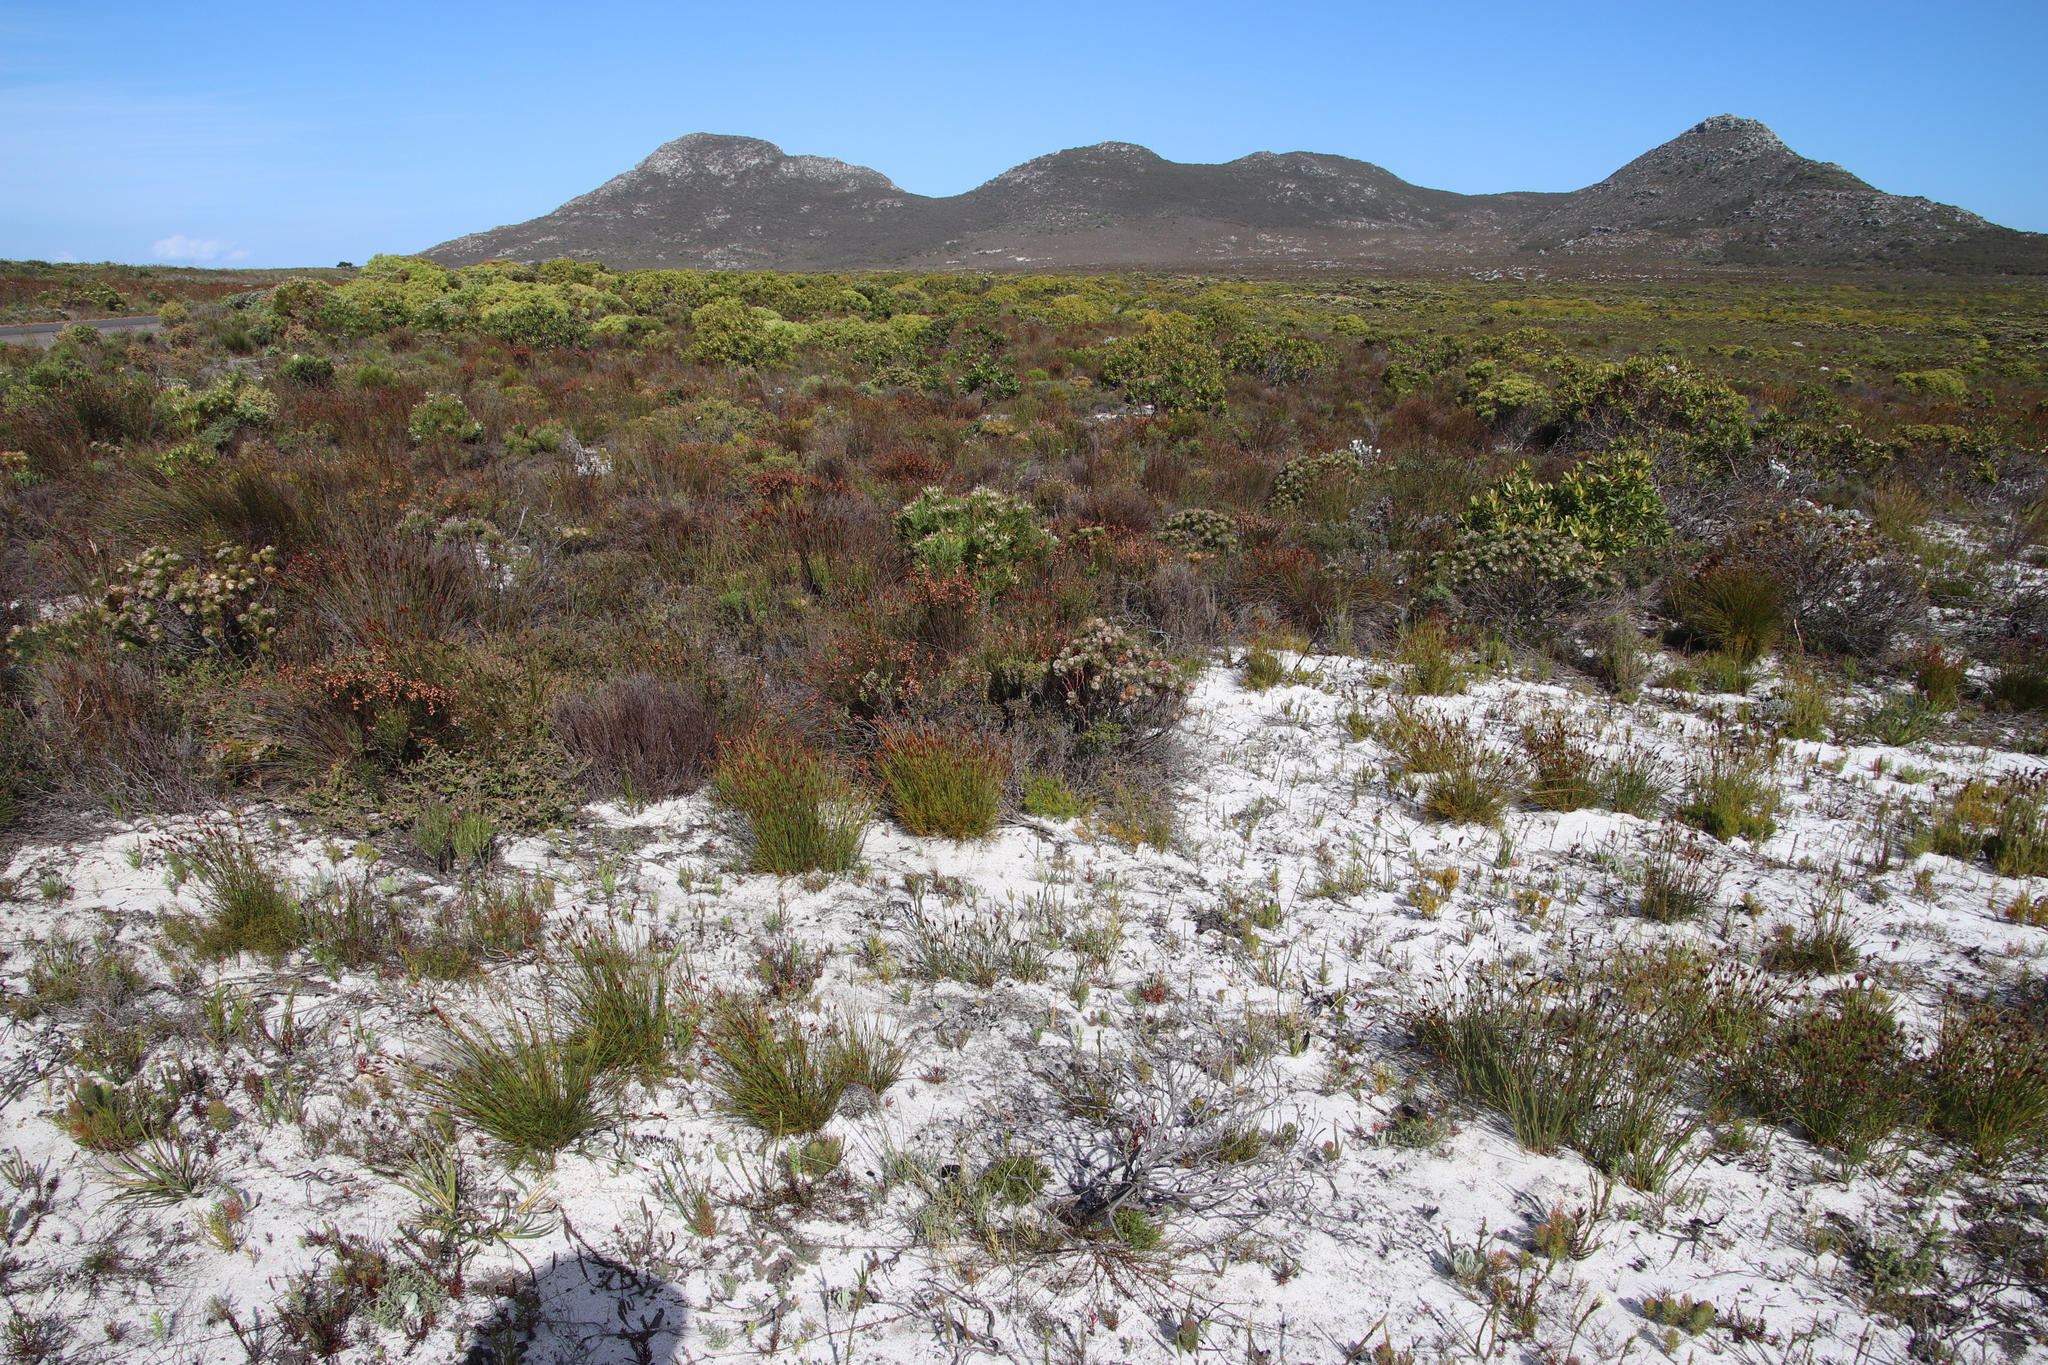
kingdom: Plantae
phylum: Tracheophyta
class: Magnoliopsida
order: Proteales
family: Proteaceae
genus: Leucadendron
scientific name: Leucadendron xanthoconus
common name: Sickle-leaf conebush
